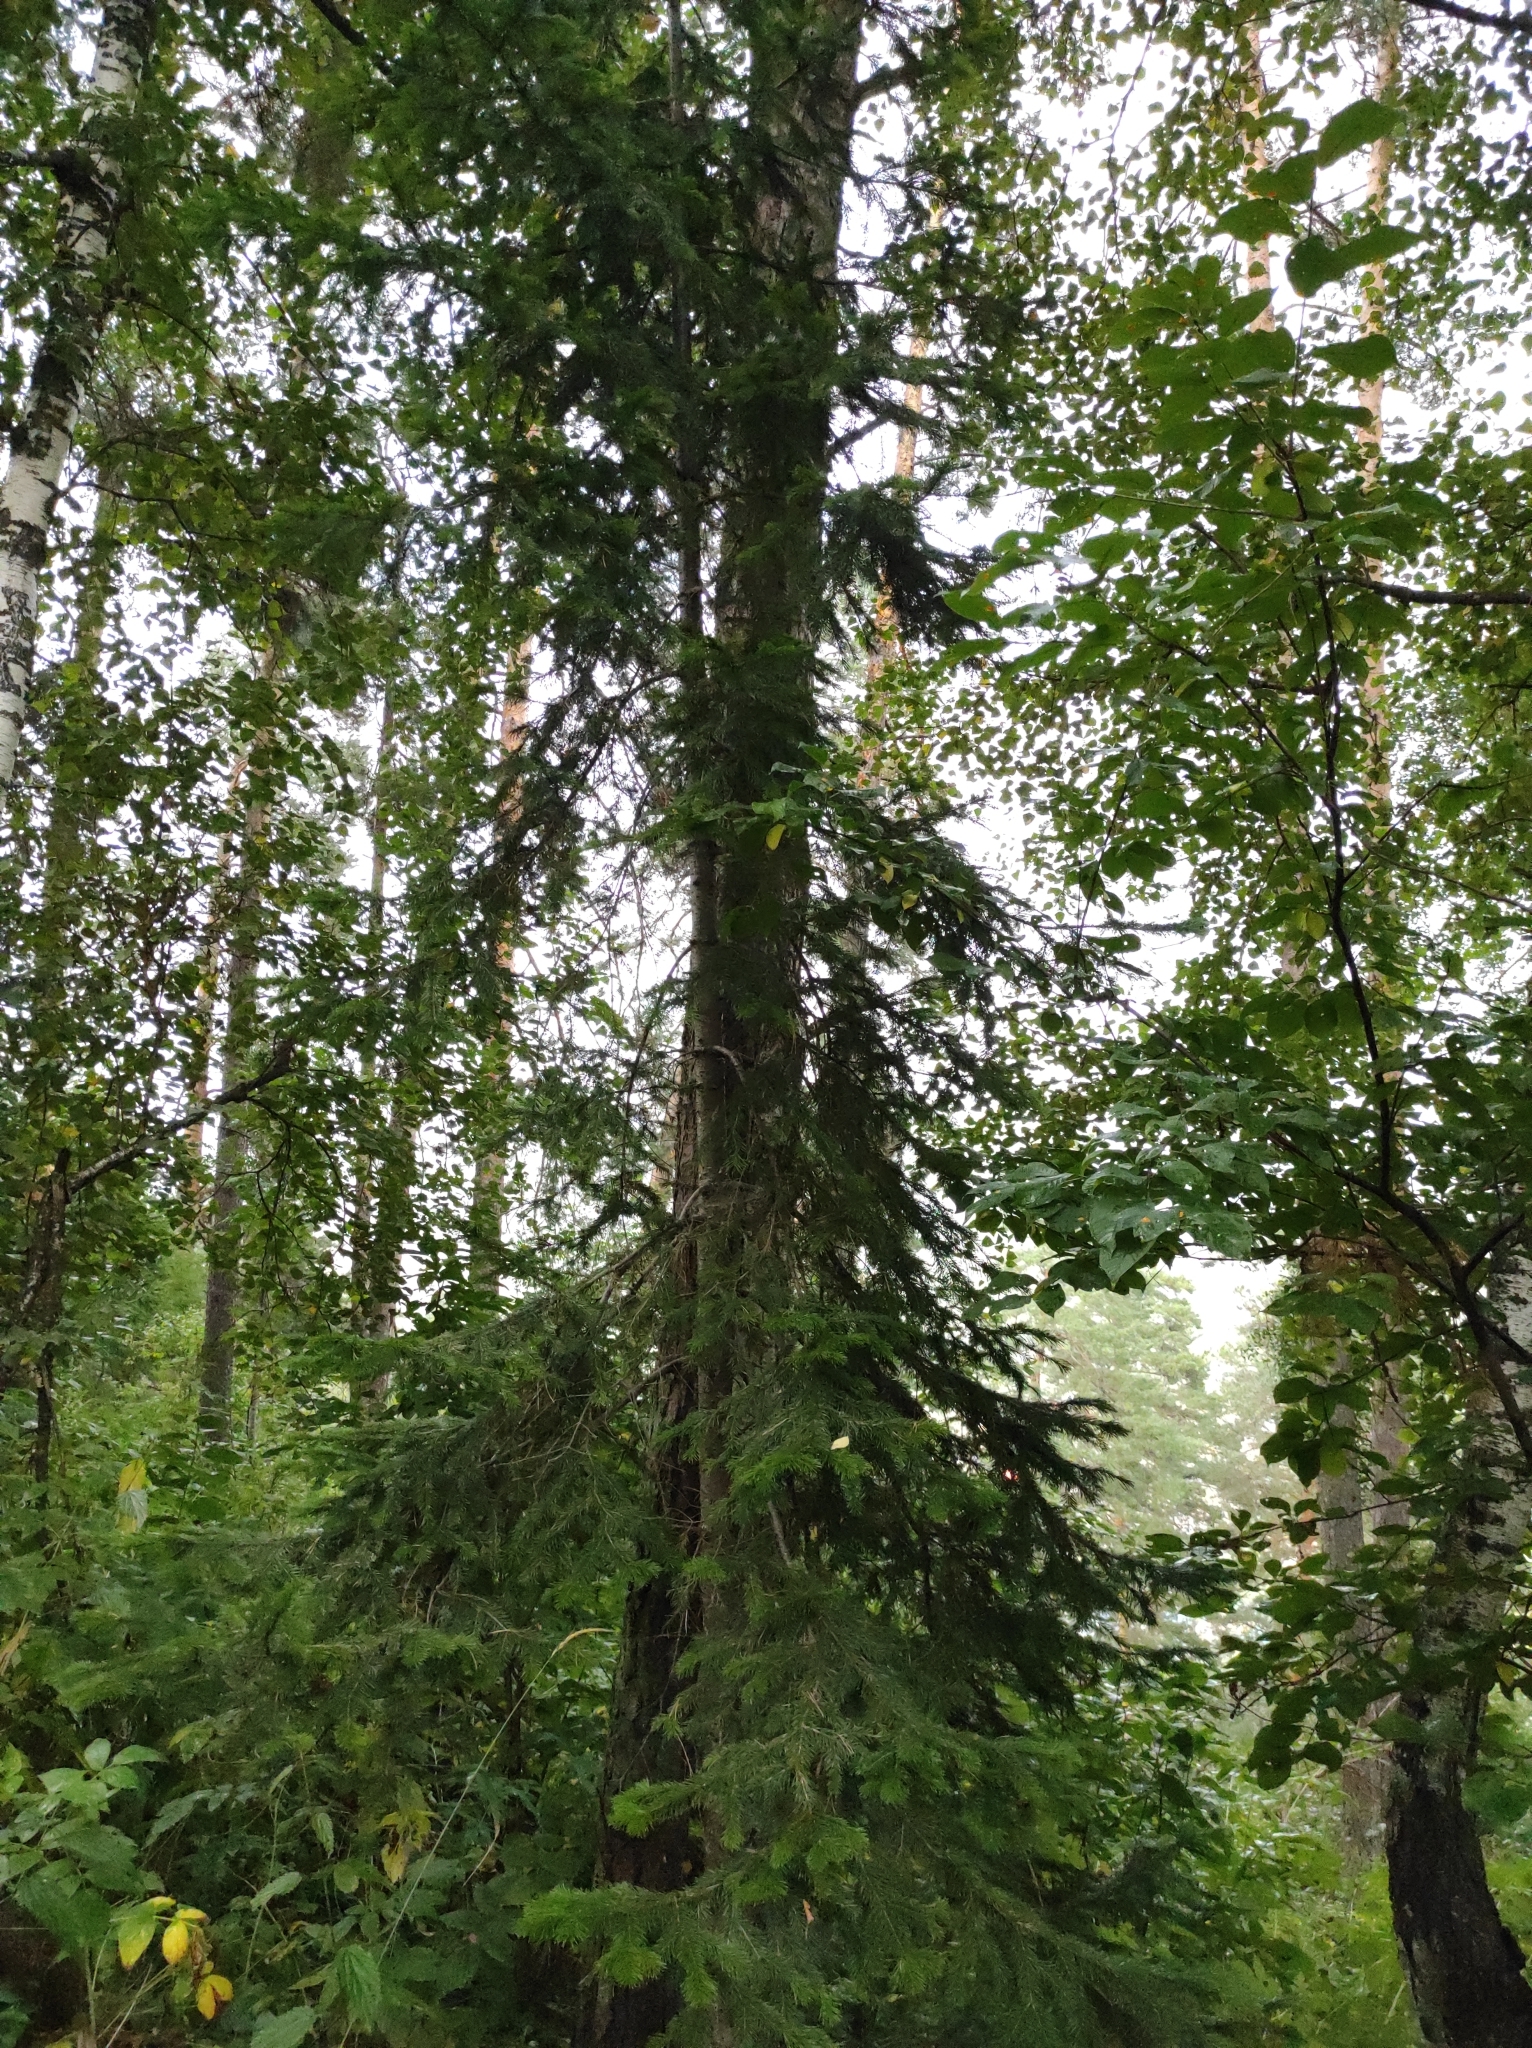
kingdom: Plantae
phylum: Tracheophyta
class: Pinopsida
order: Pinales
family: Pinaceae
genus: Abies
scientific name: Abies sibirica
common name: Siberian fir
